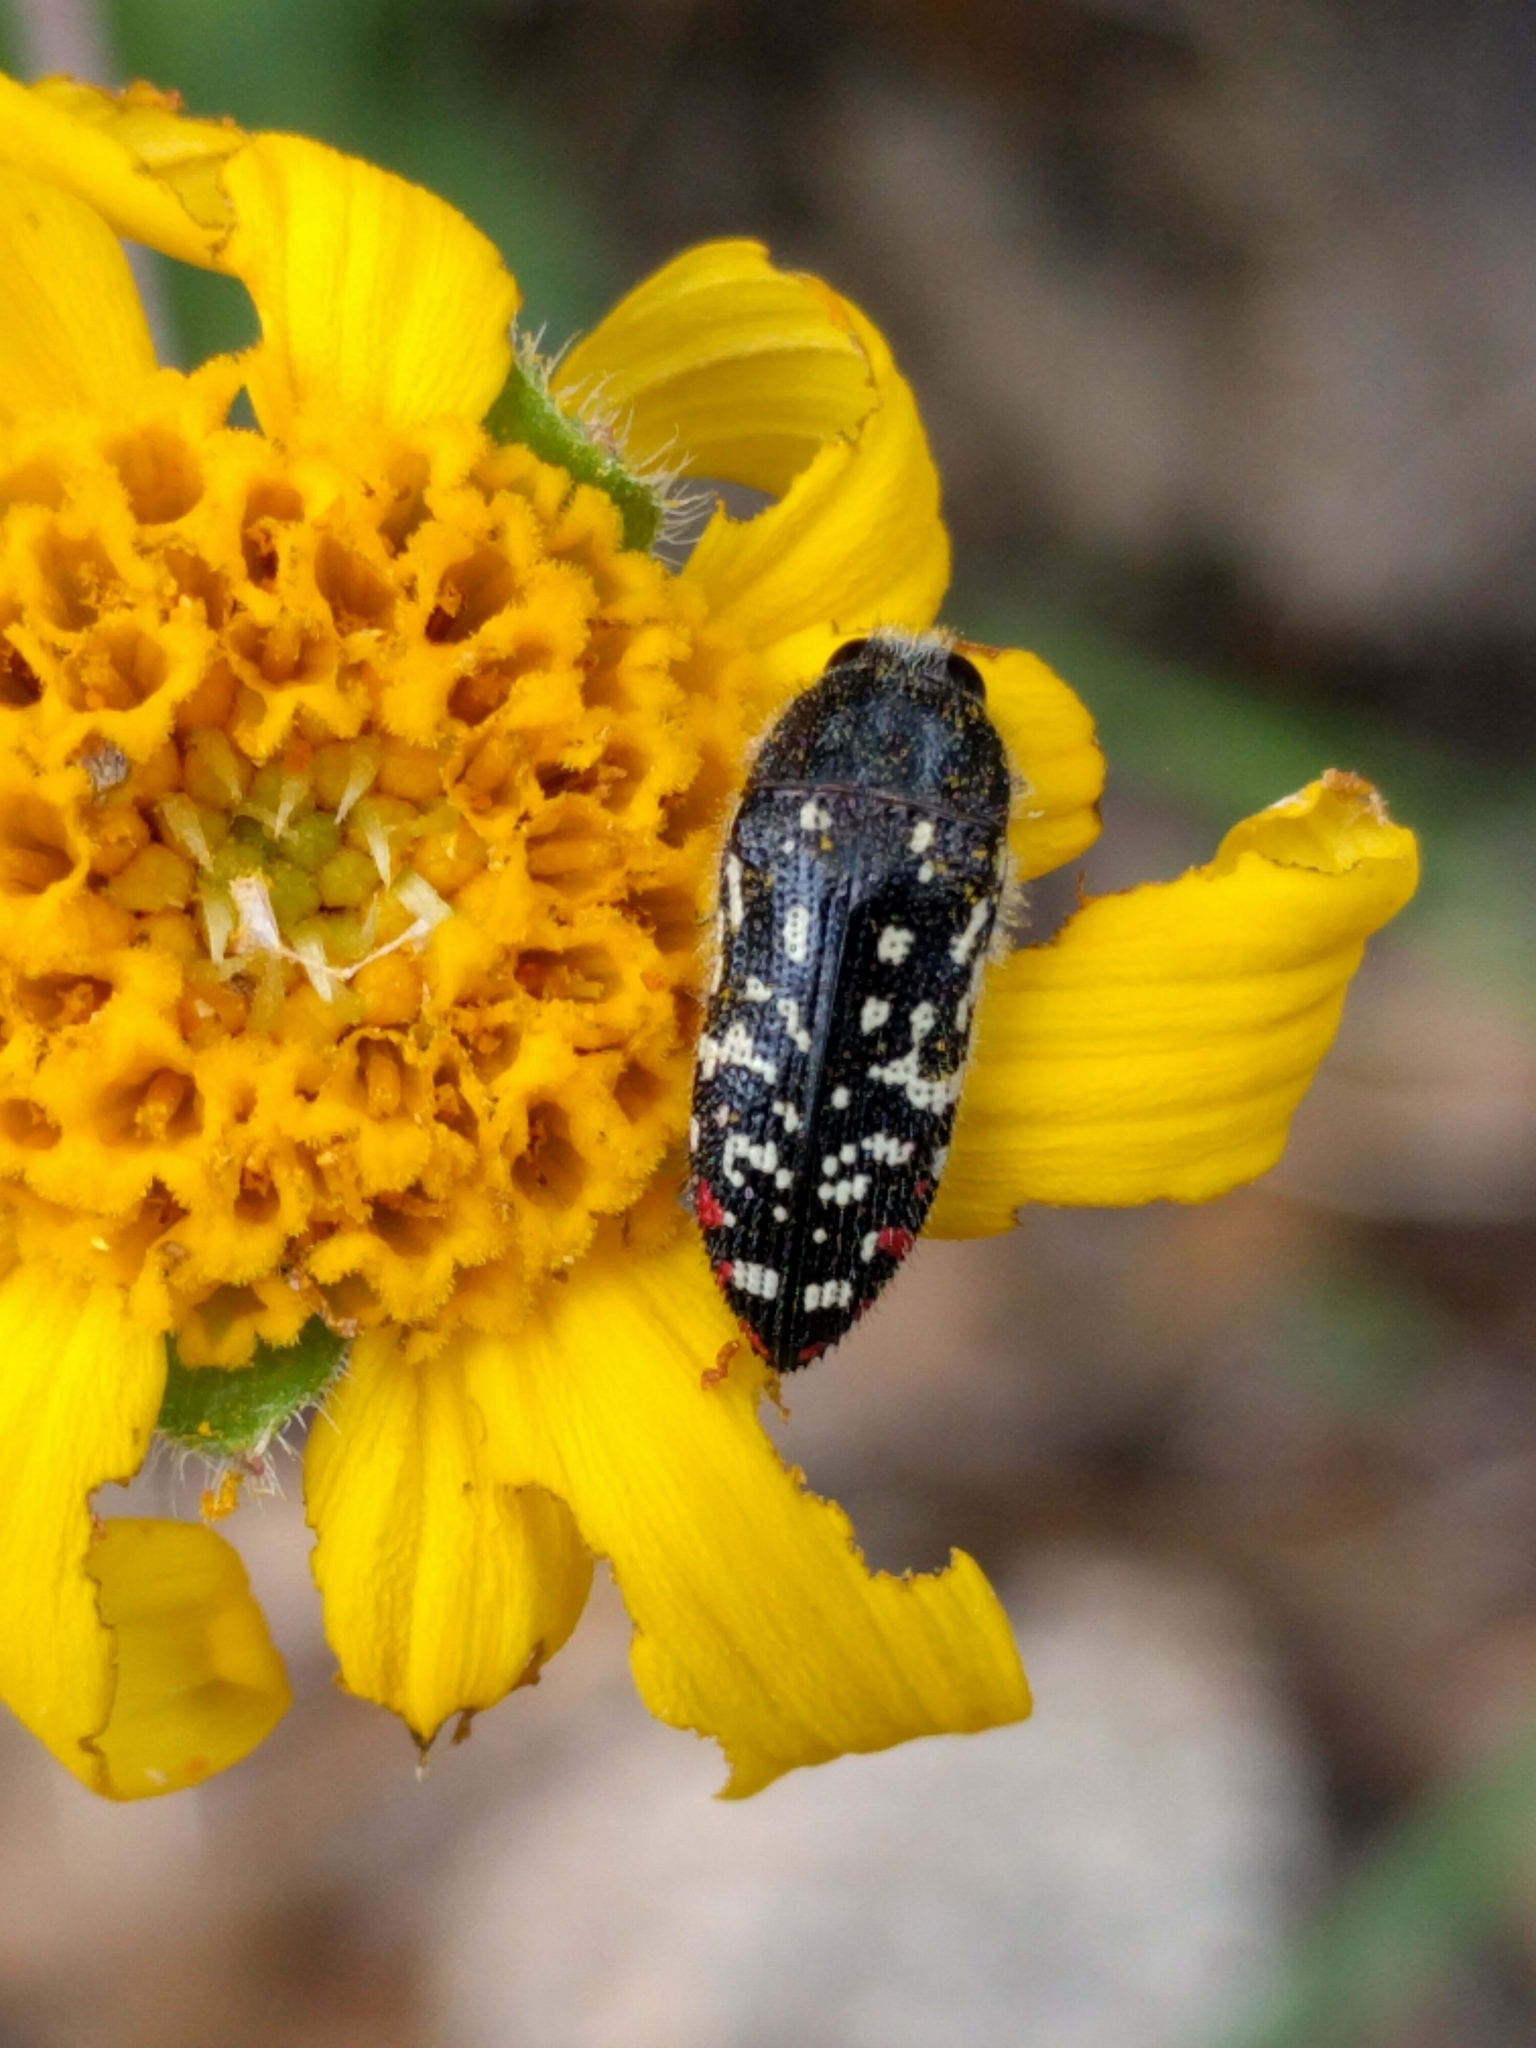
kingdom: Animalia
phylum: Arthropoda
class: Insecta
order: Coleoptera
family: Buprestidae
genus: Acmaeodera
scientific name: Acmaeodera rubronotata
